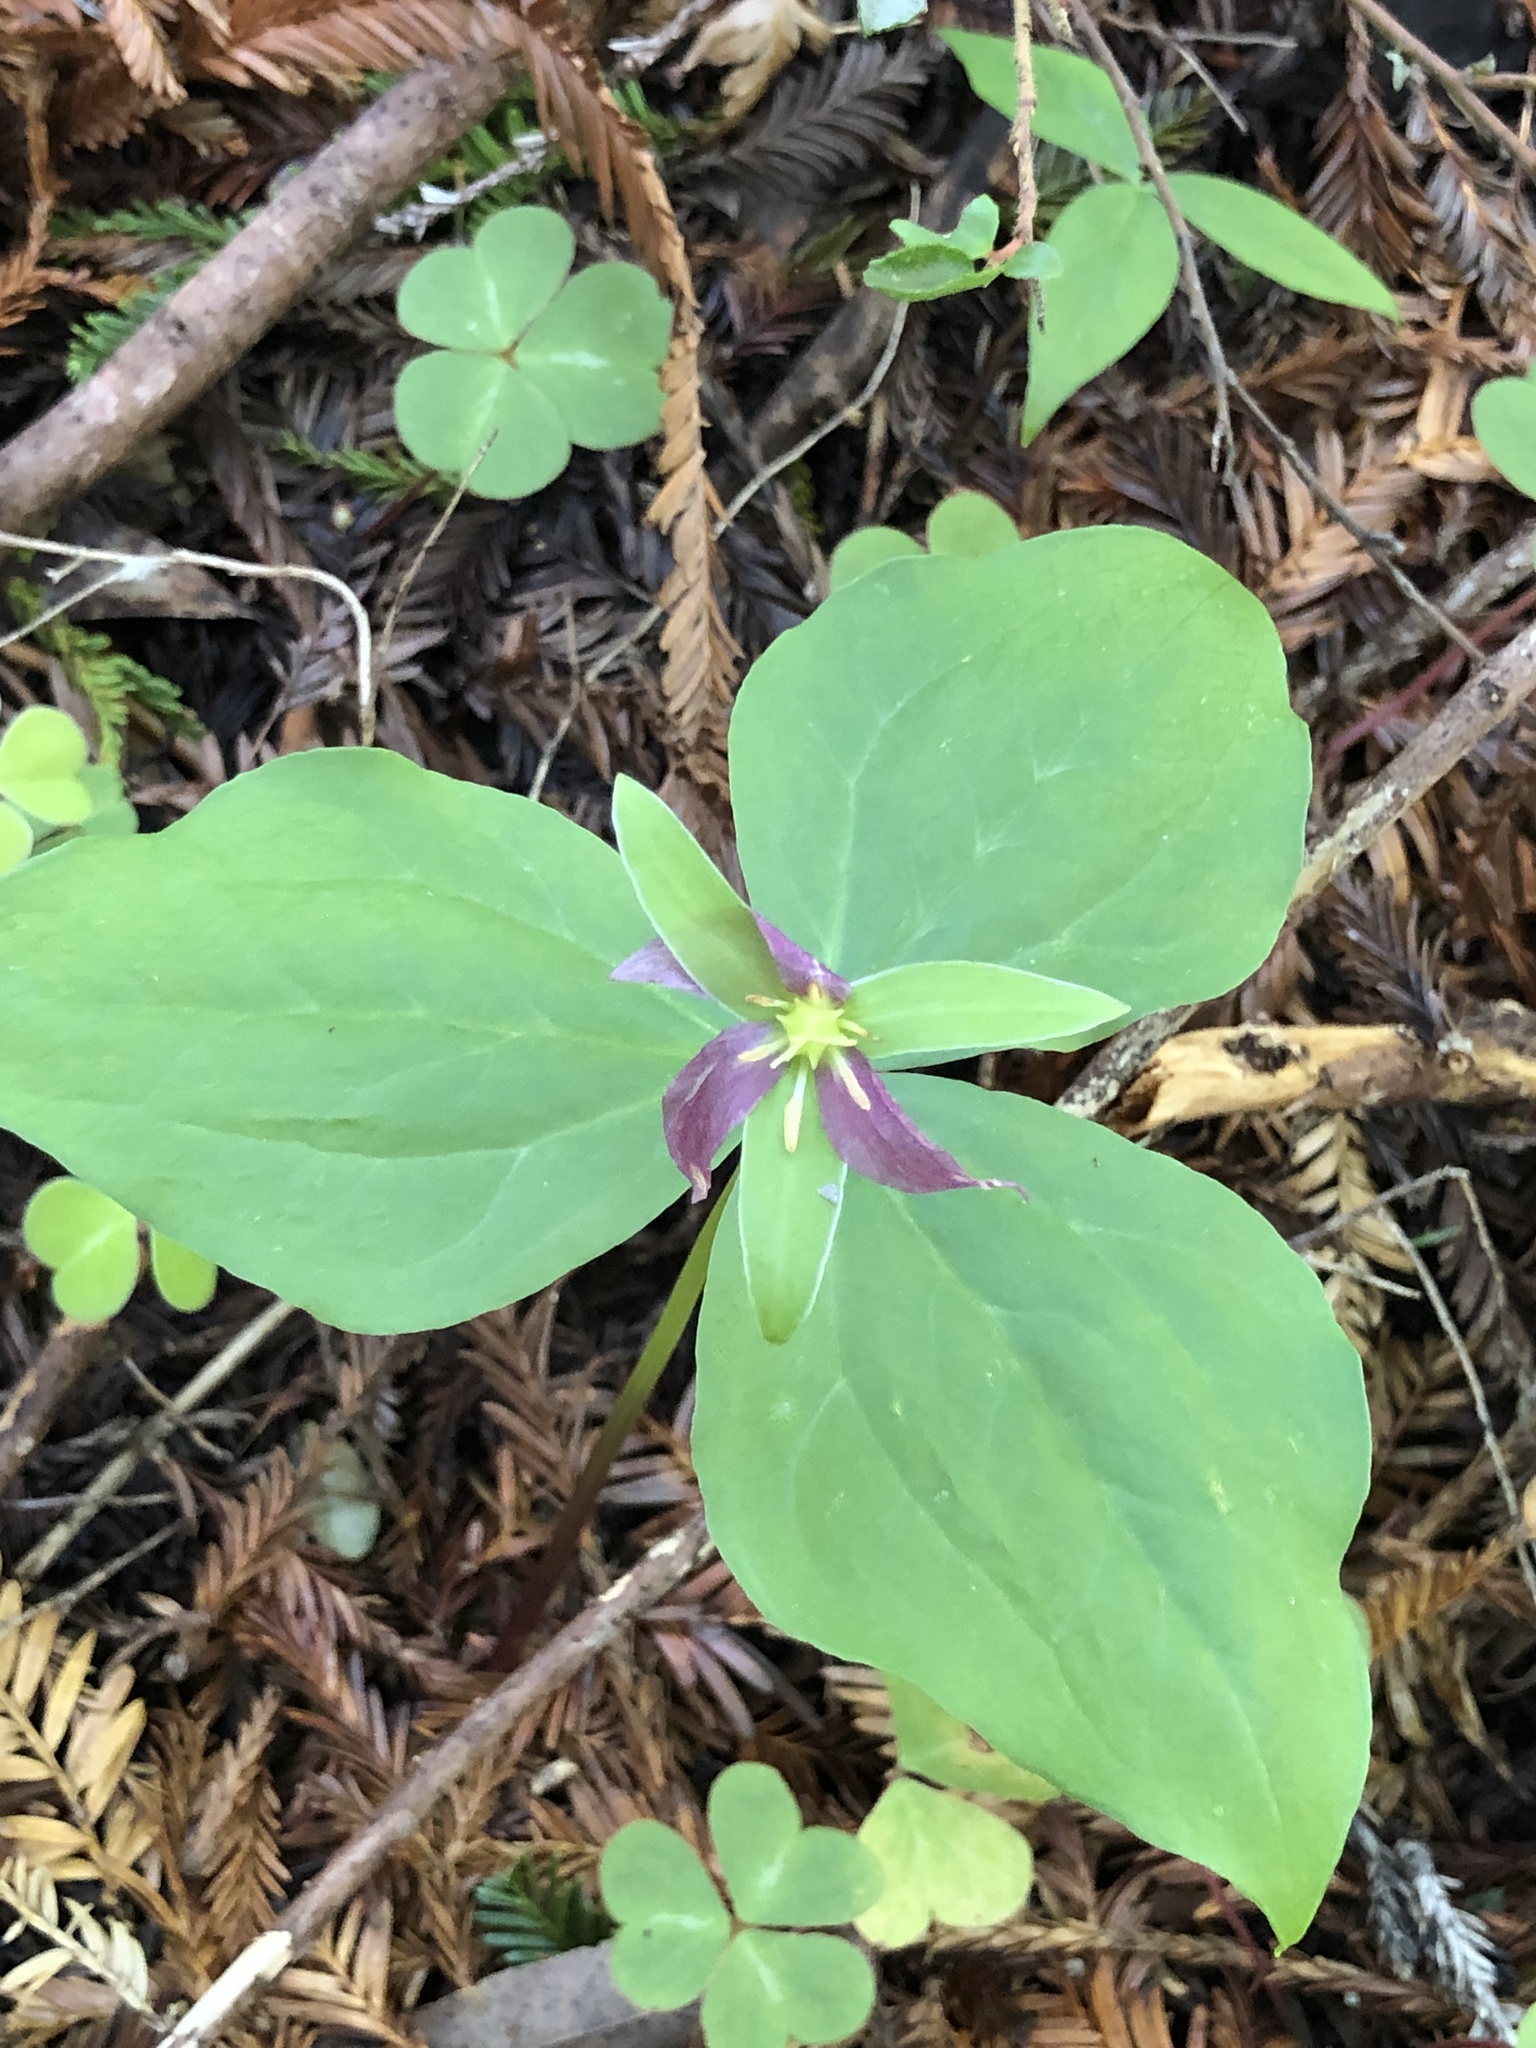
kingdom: Plantae
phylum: Tracheophyta
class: Liliopsida
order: Liliales
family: Melanthiaceae
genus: Trillium
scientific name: Trillium ovatum
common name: Pacific trillium
